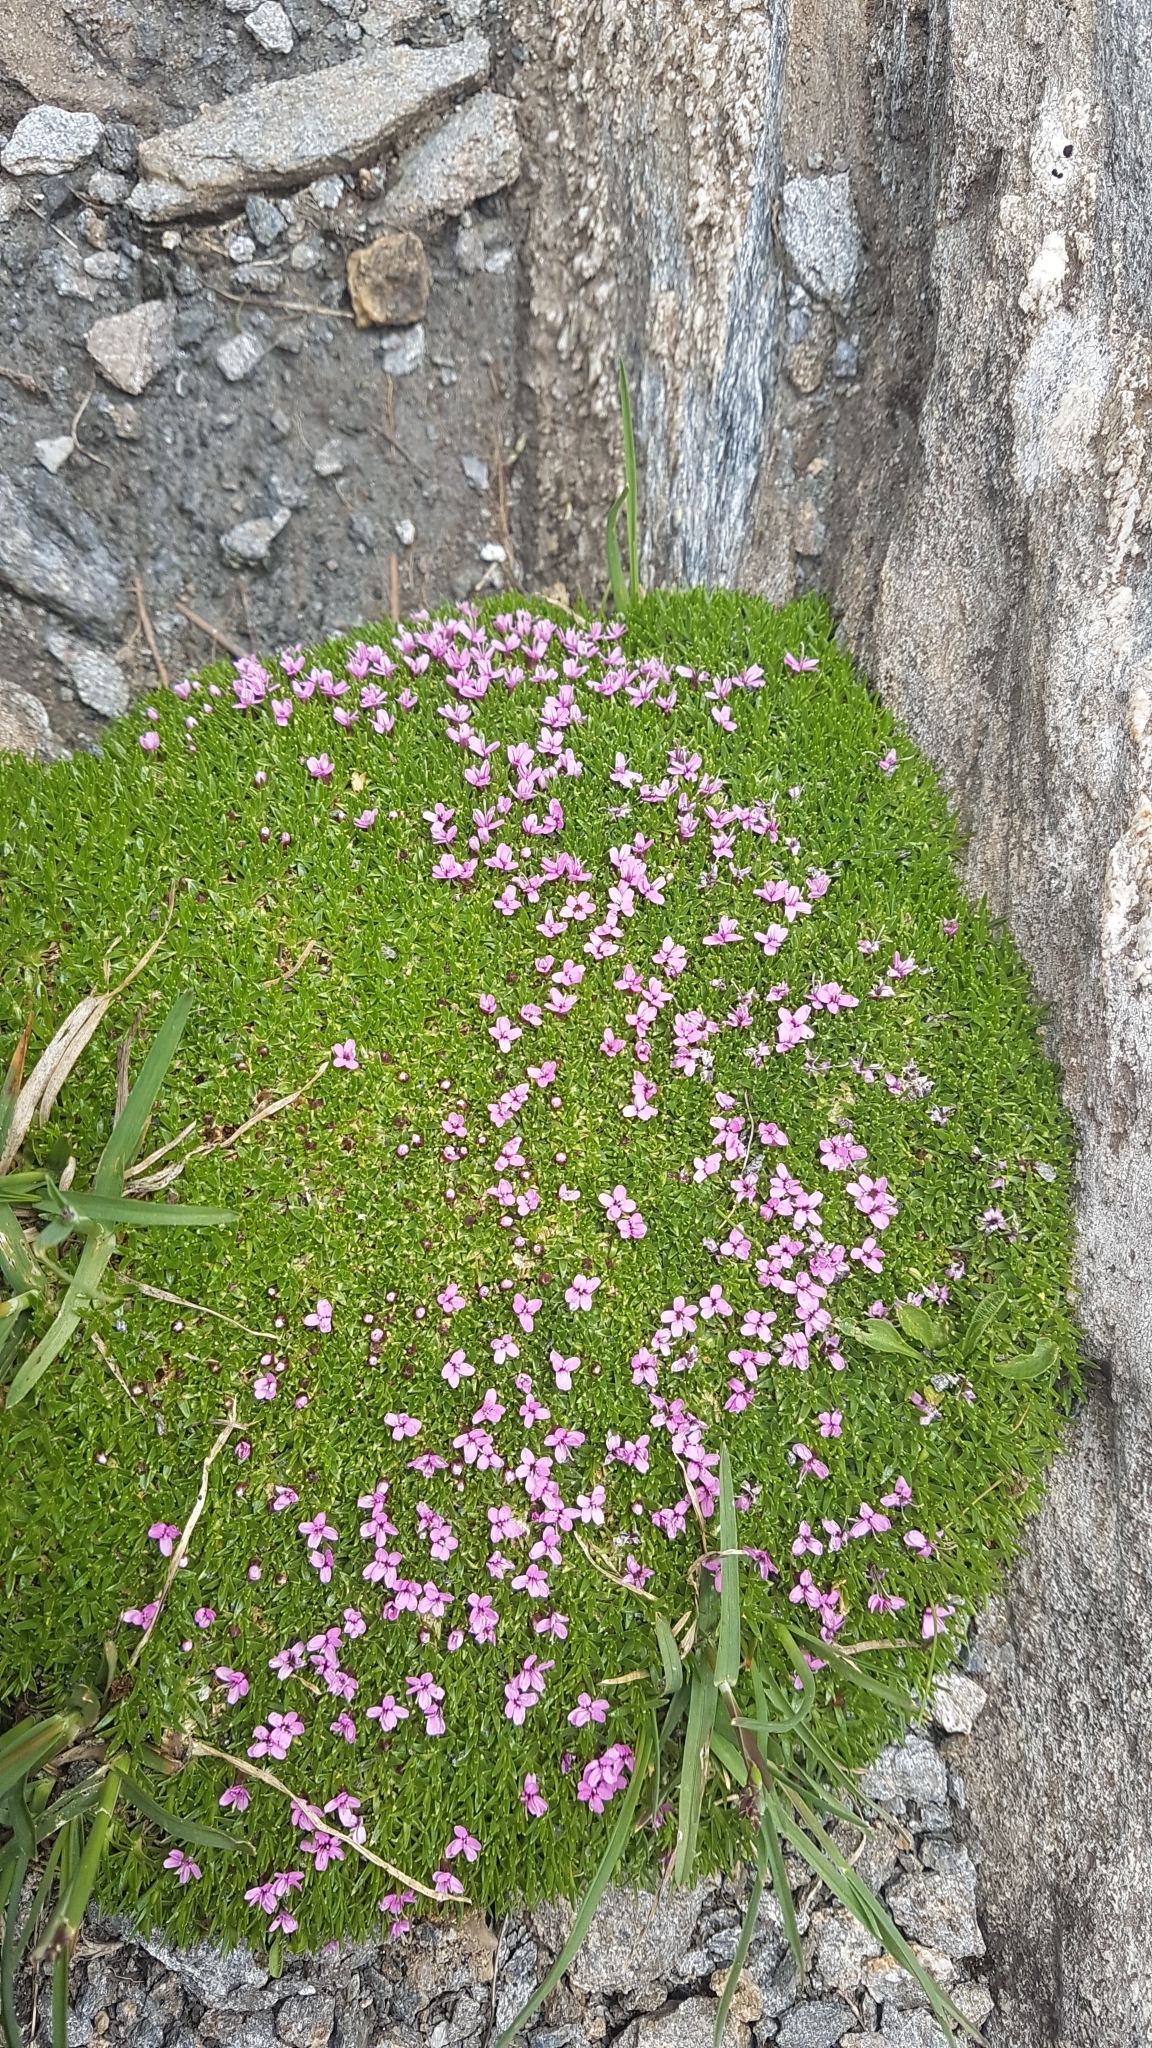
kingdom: Plantae
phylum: Tracheophyta
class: Magnoliopsida
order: Caryophyllales
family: Caryophyllaceae
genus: Silene
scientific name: Silene acaulis
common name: Moss campion
